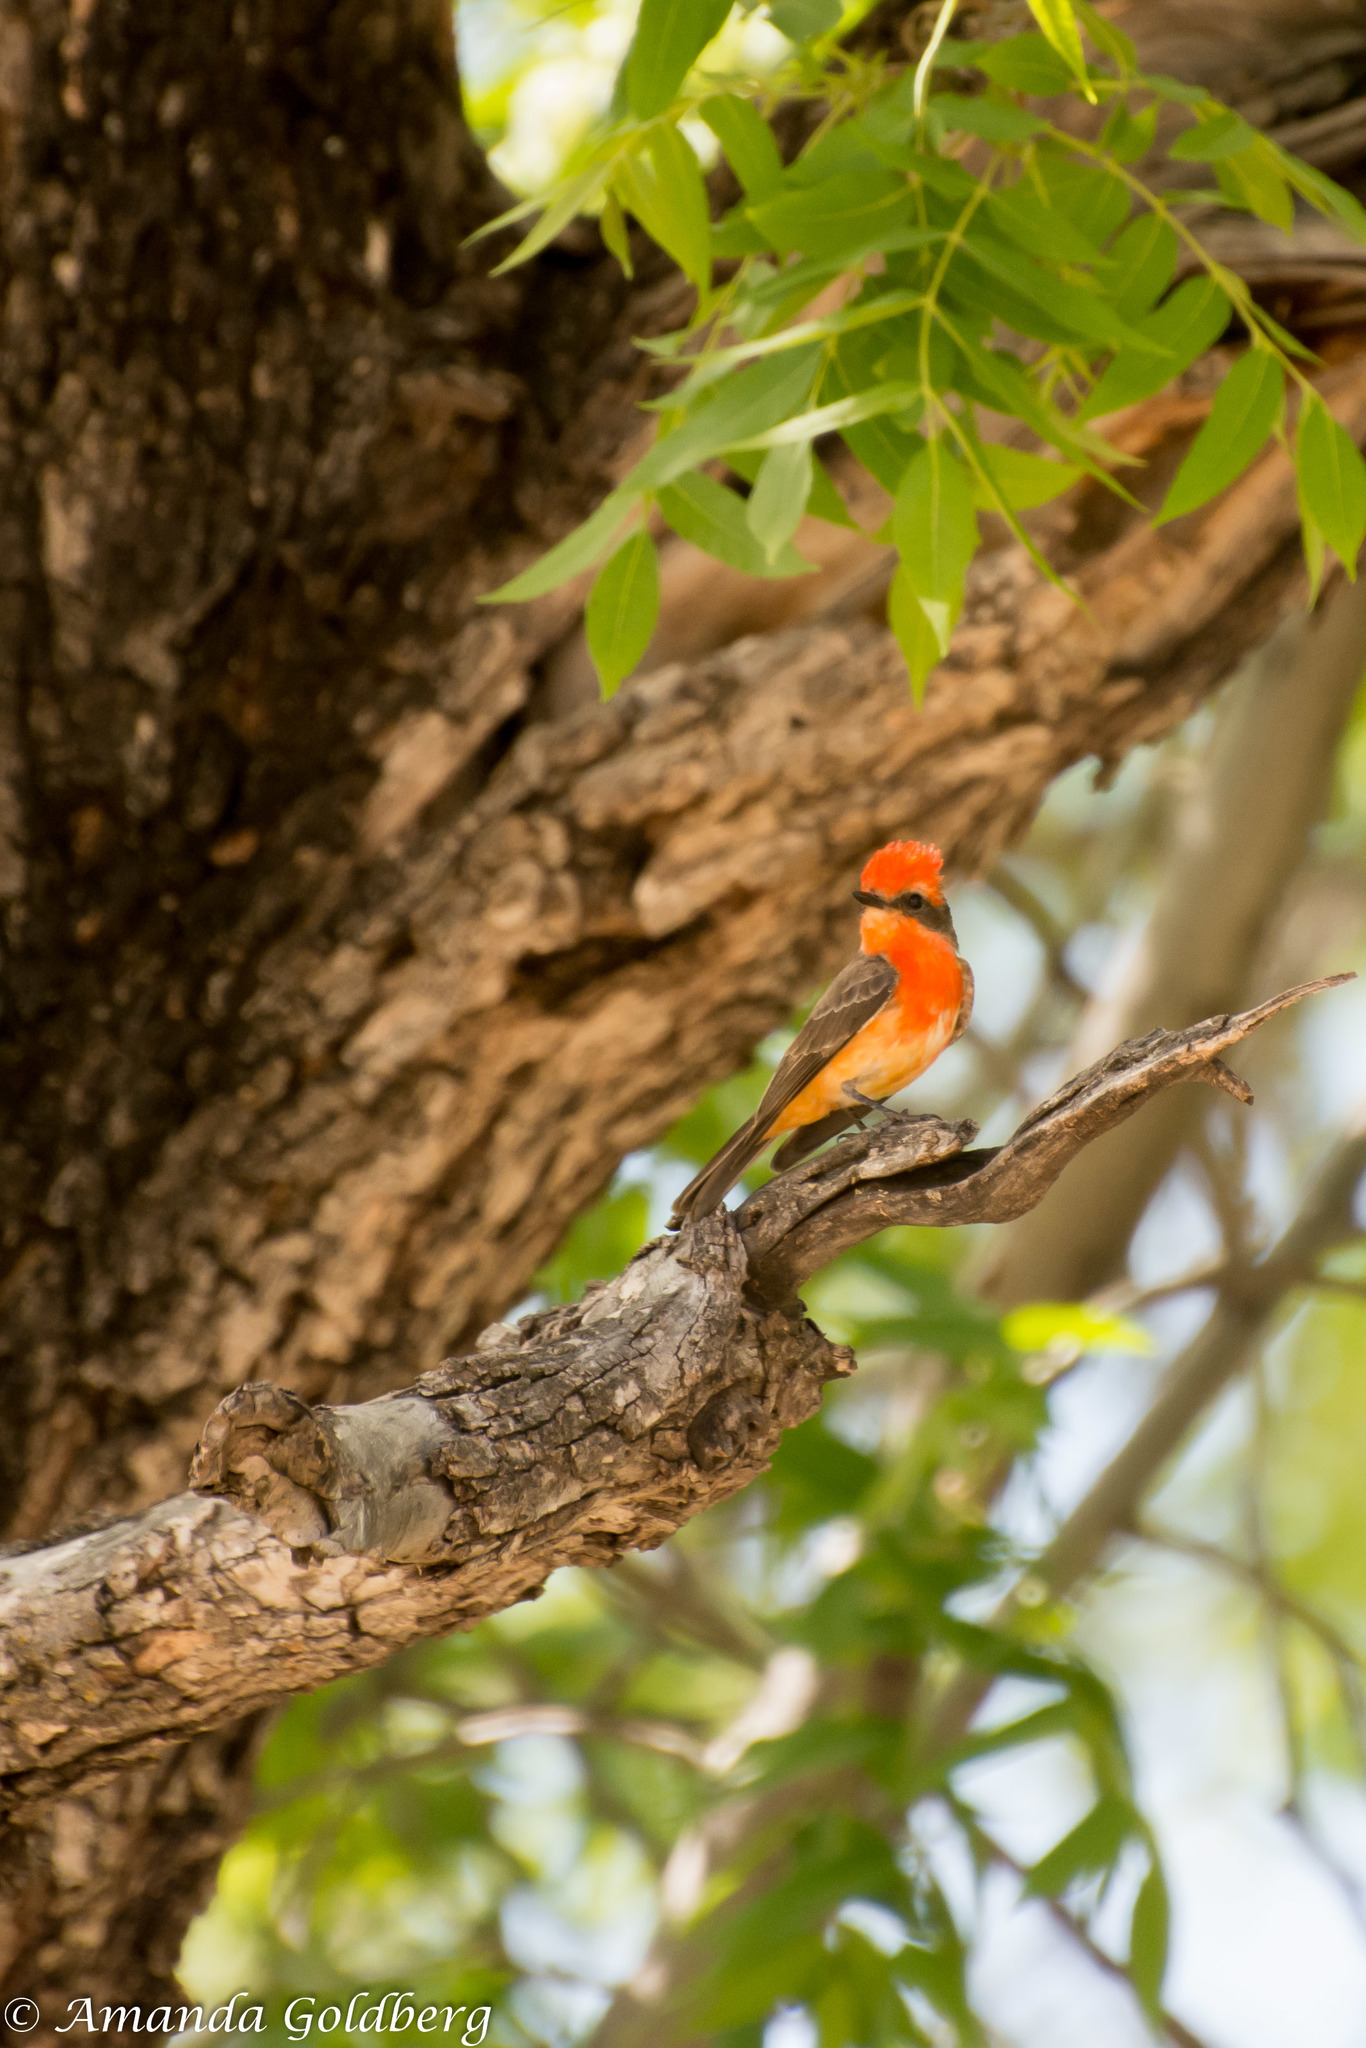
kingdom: Animalia
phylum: Chordata
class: Aves
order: Passeriformes
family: Tyrannidae
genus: Pyrocephalus
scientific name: Pyrocephalus rubinus
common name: Vermilion flycatcher
